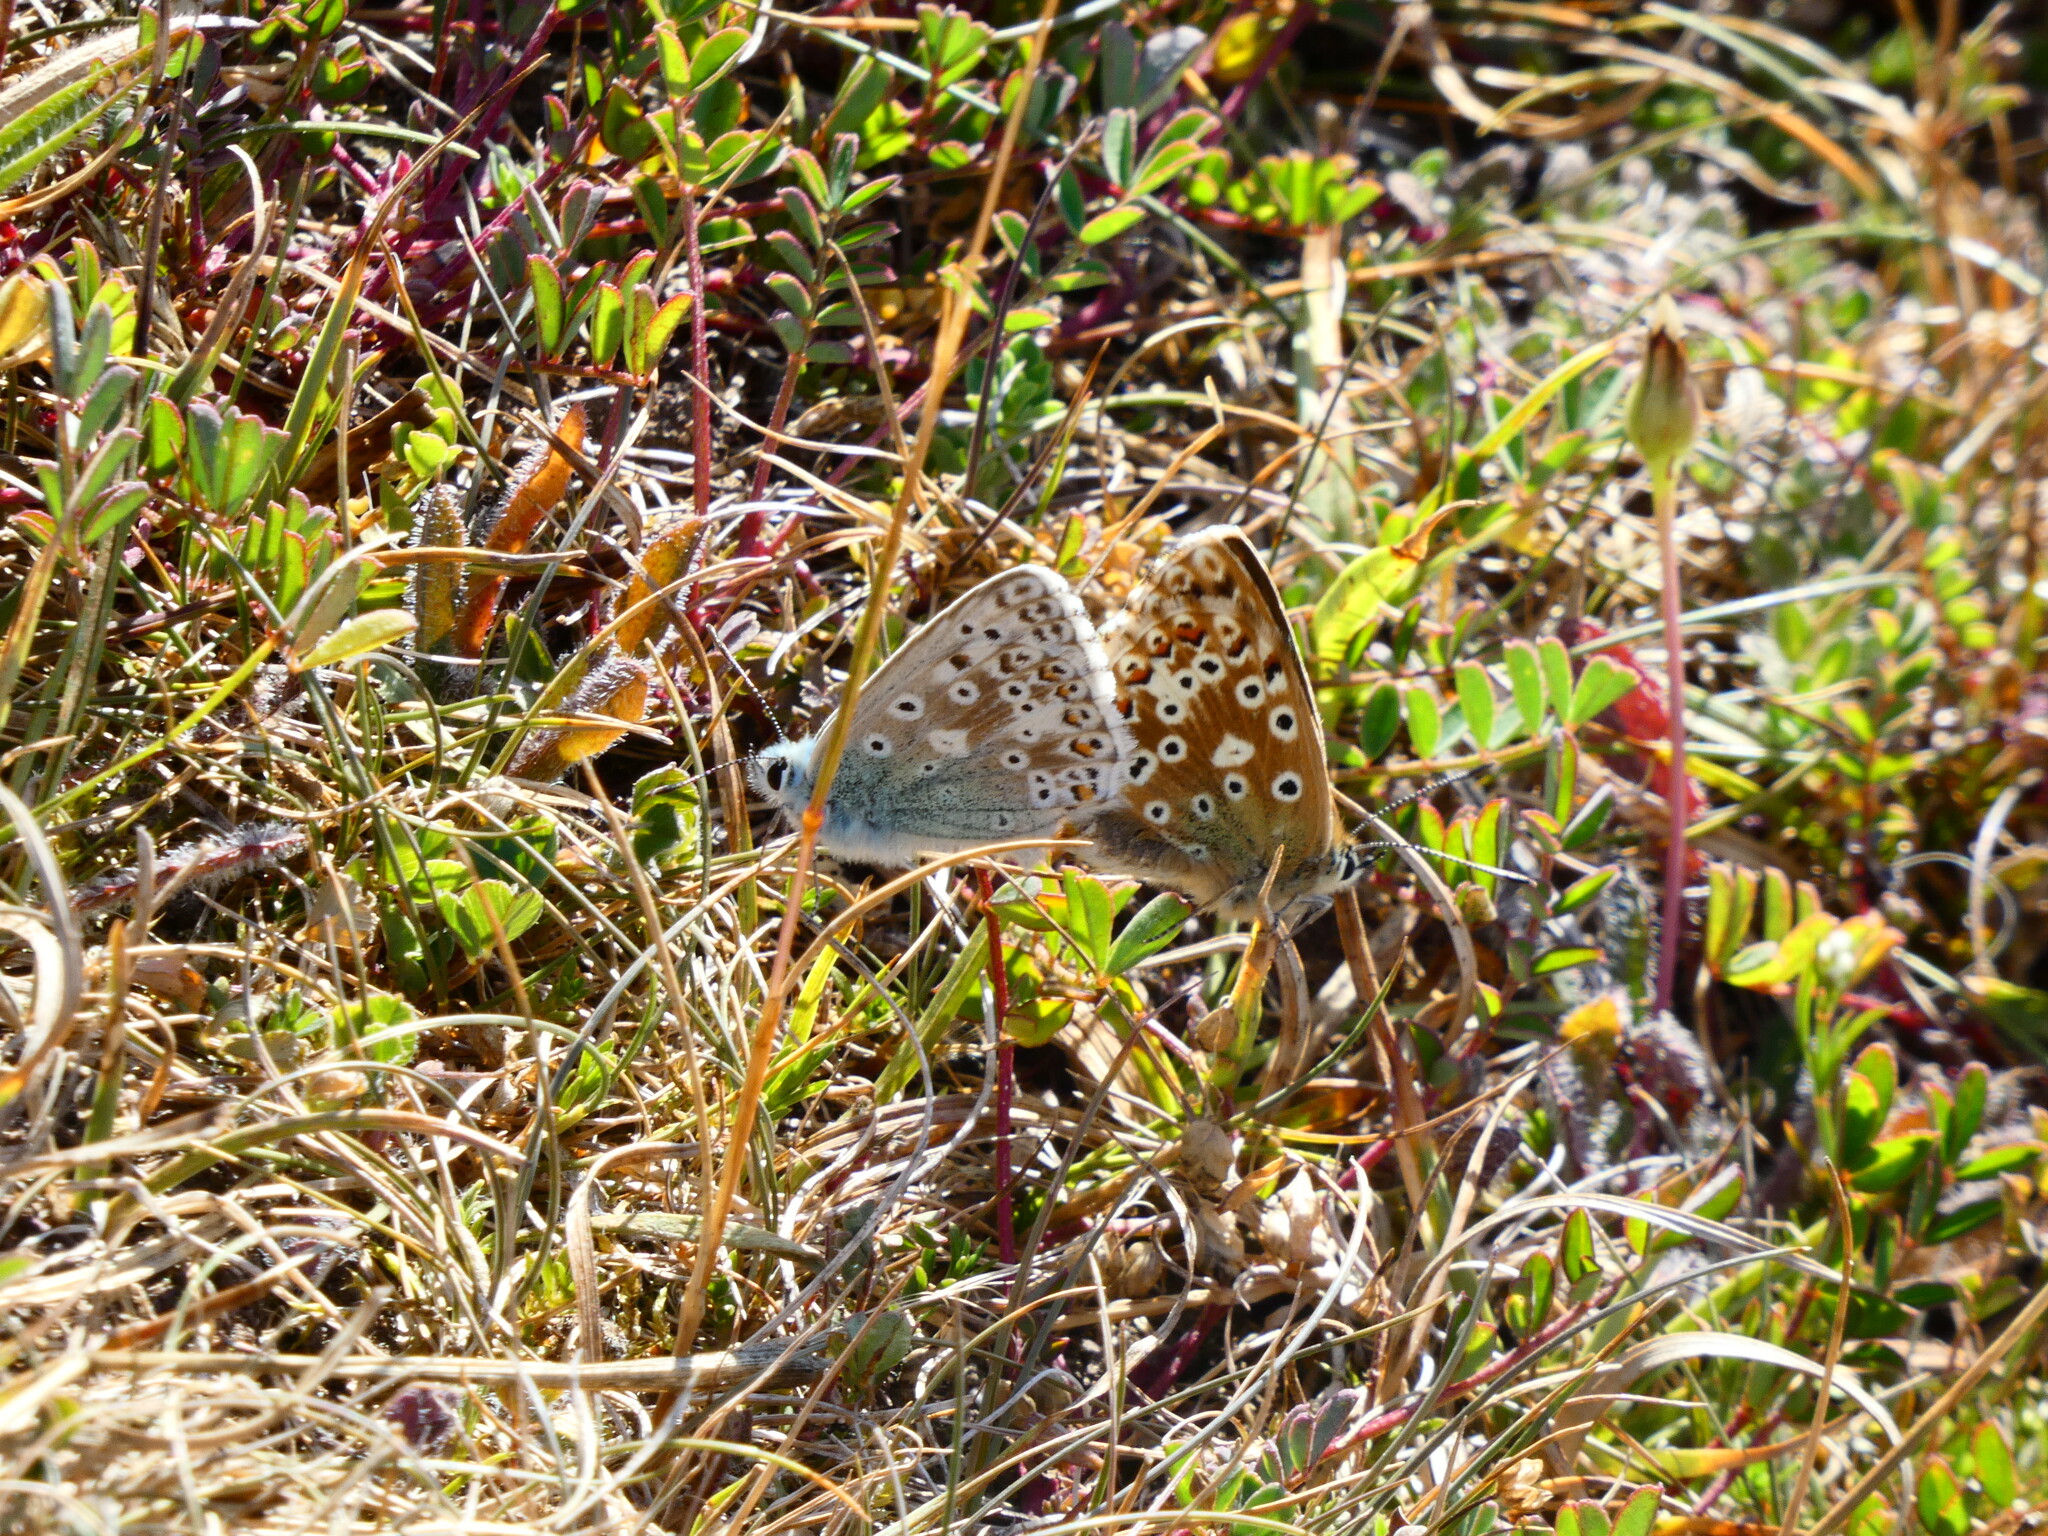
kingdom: Animalia
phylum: Arthropoda
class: Insecta
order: Lepidoptera
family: Lycaenidae
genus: Lysandra
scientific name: Lysandra coridon
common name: Chalkhill blue
